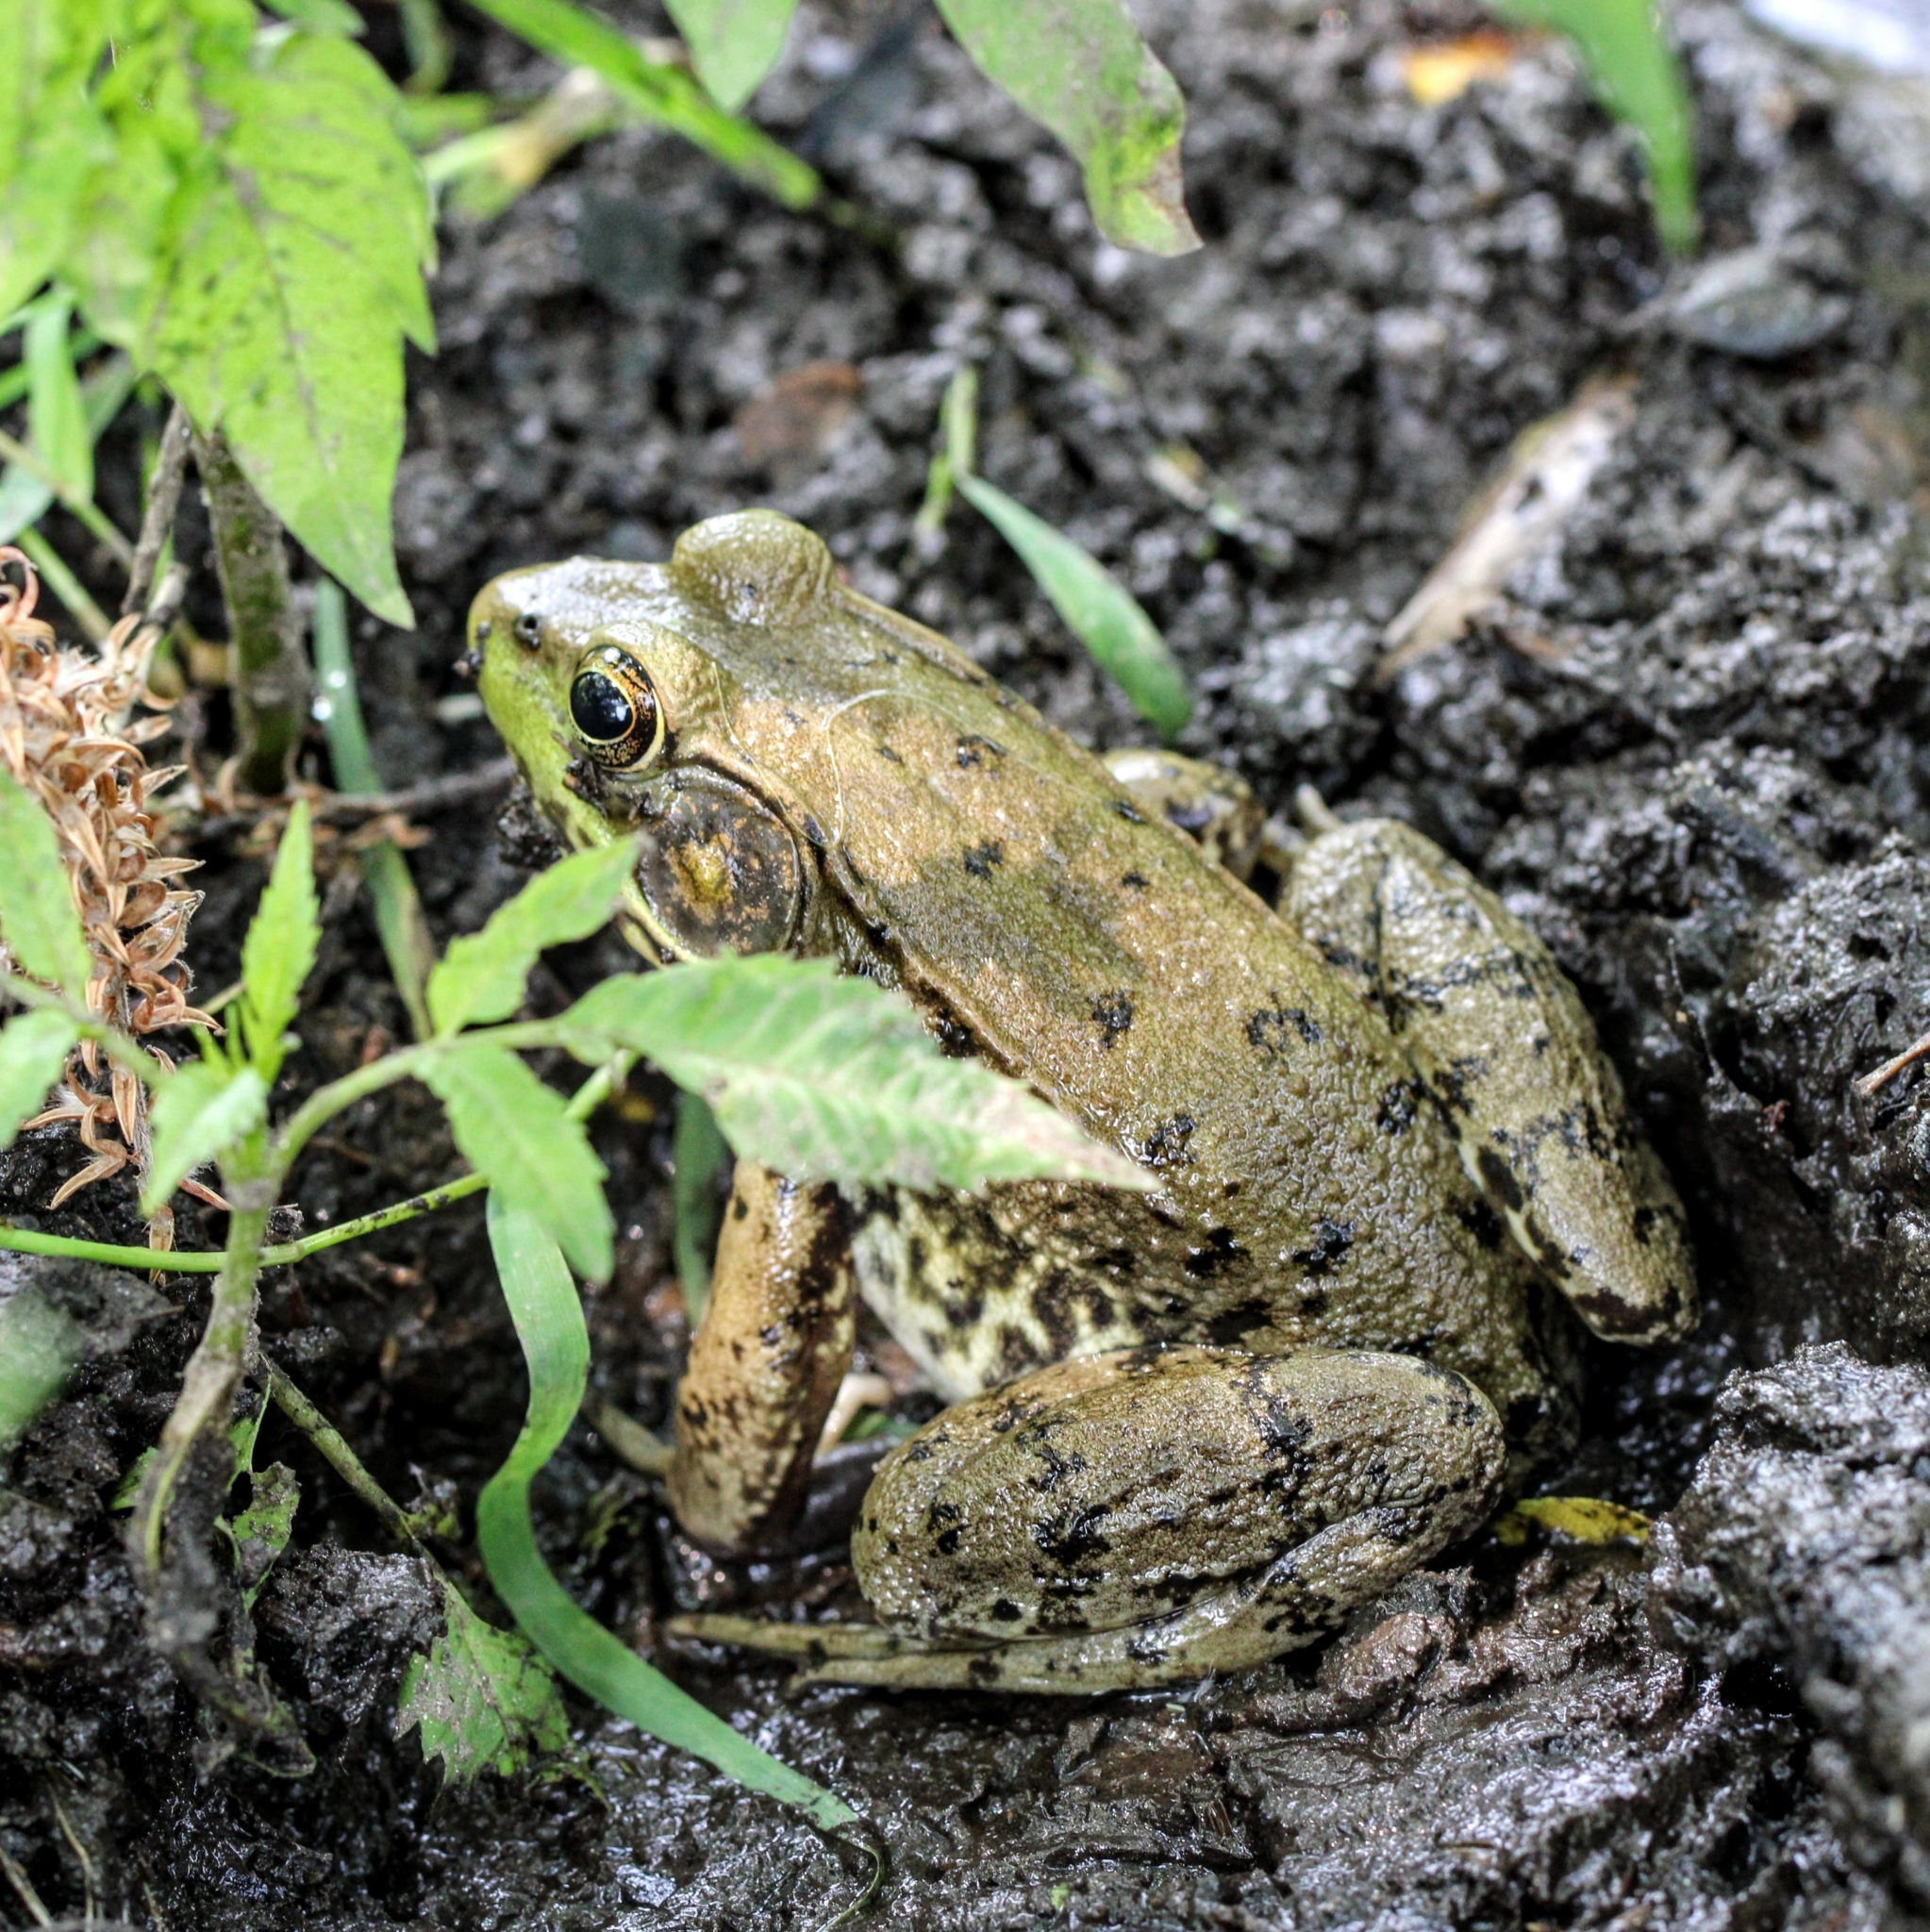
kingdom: Animalia
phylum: Chordata
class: Amphibia
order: Anura
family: Ranidae
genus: Lithobates
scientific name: Lithobates clamitans
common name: Green frog
